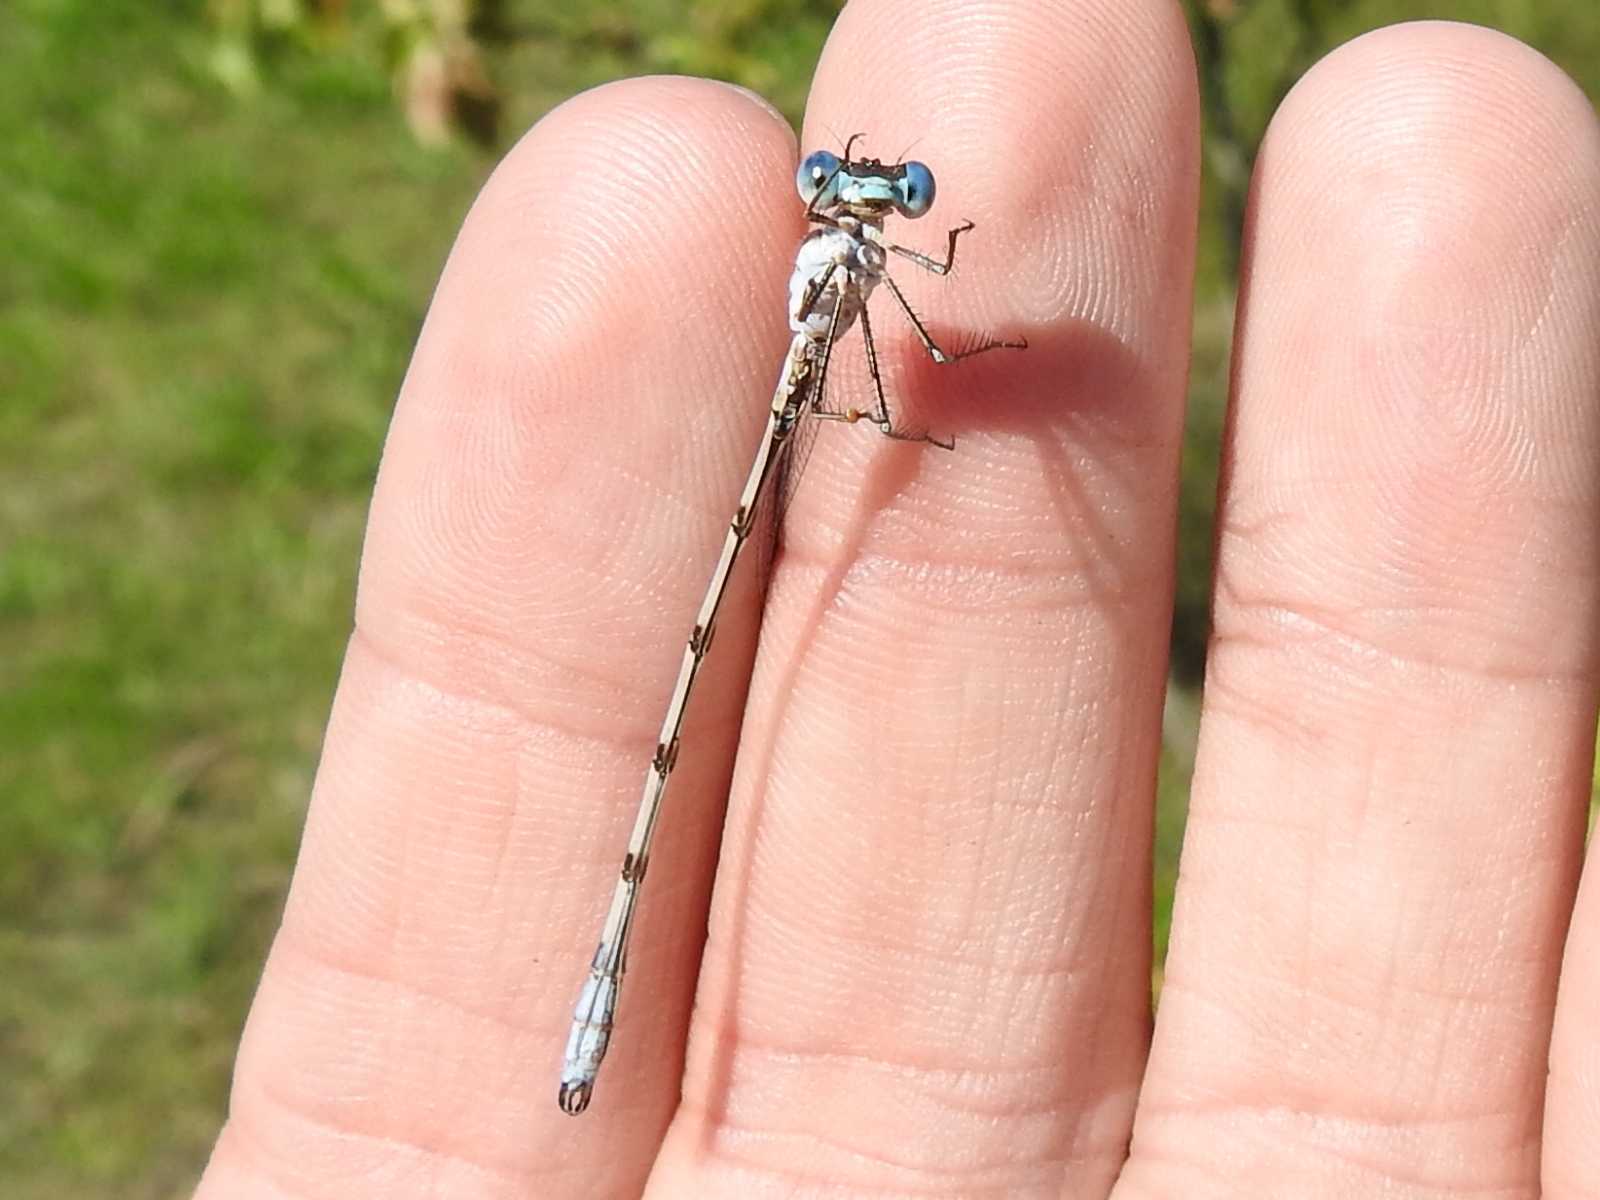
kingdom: Animalia
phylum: Arthropoda
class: Insecta
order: Odonata
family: Lestidae
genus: Lestes
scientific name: Lestes australis
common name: Southern spreadwing
